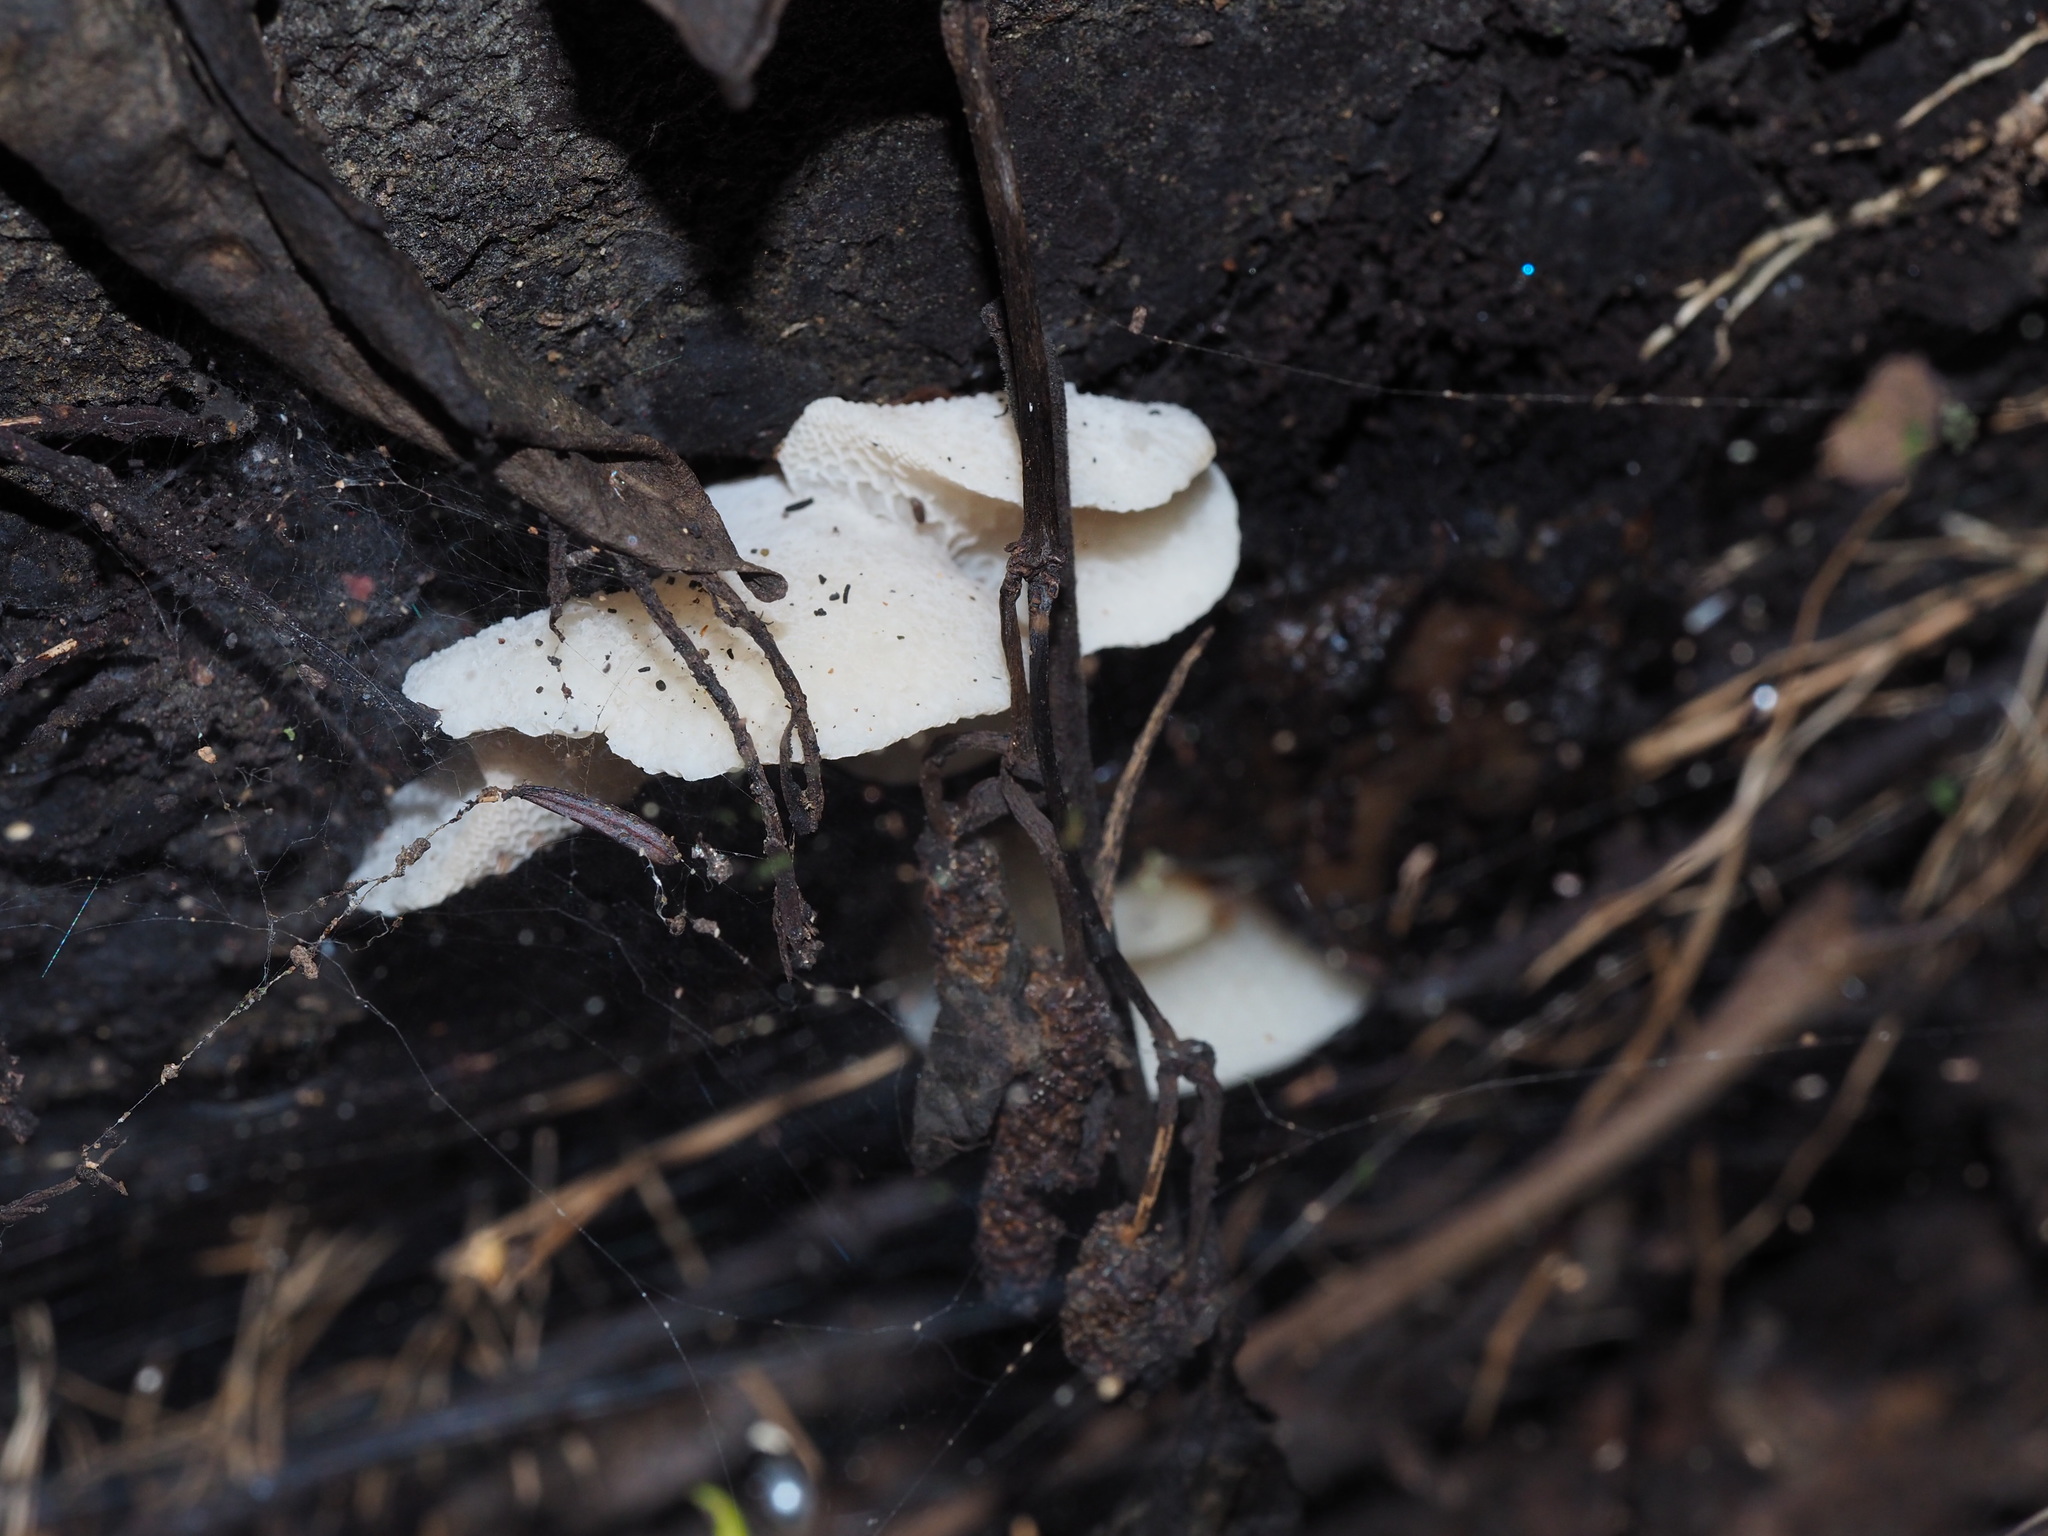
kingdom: Fungi
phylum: Basidiomycota
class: Agaricomycetes
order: Agaricales
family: Mycenaceae
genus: Favolaschia
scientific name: Favolaschia pustulosa
